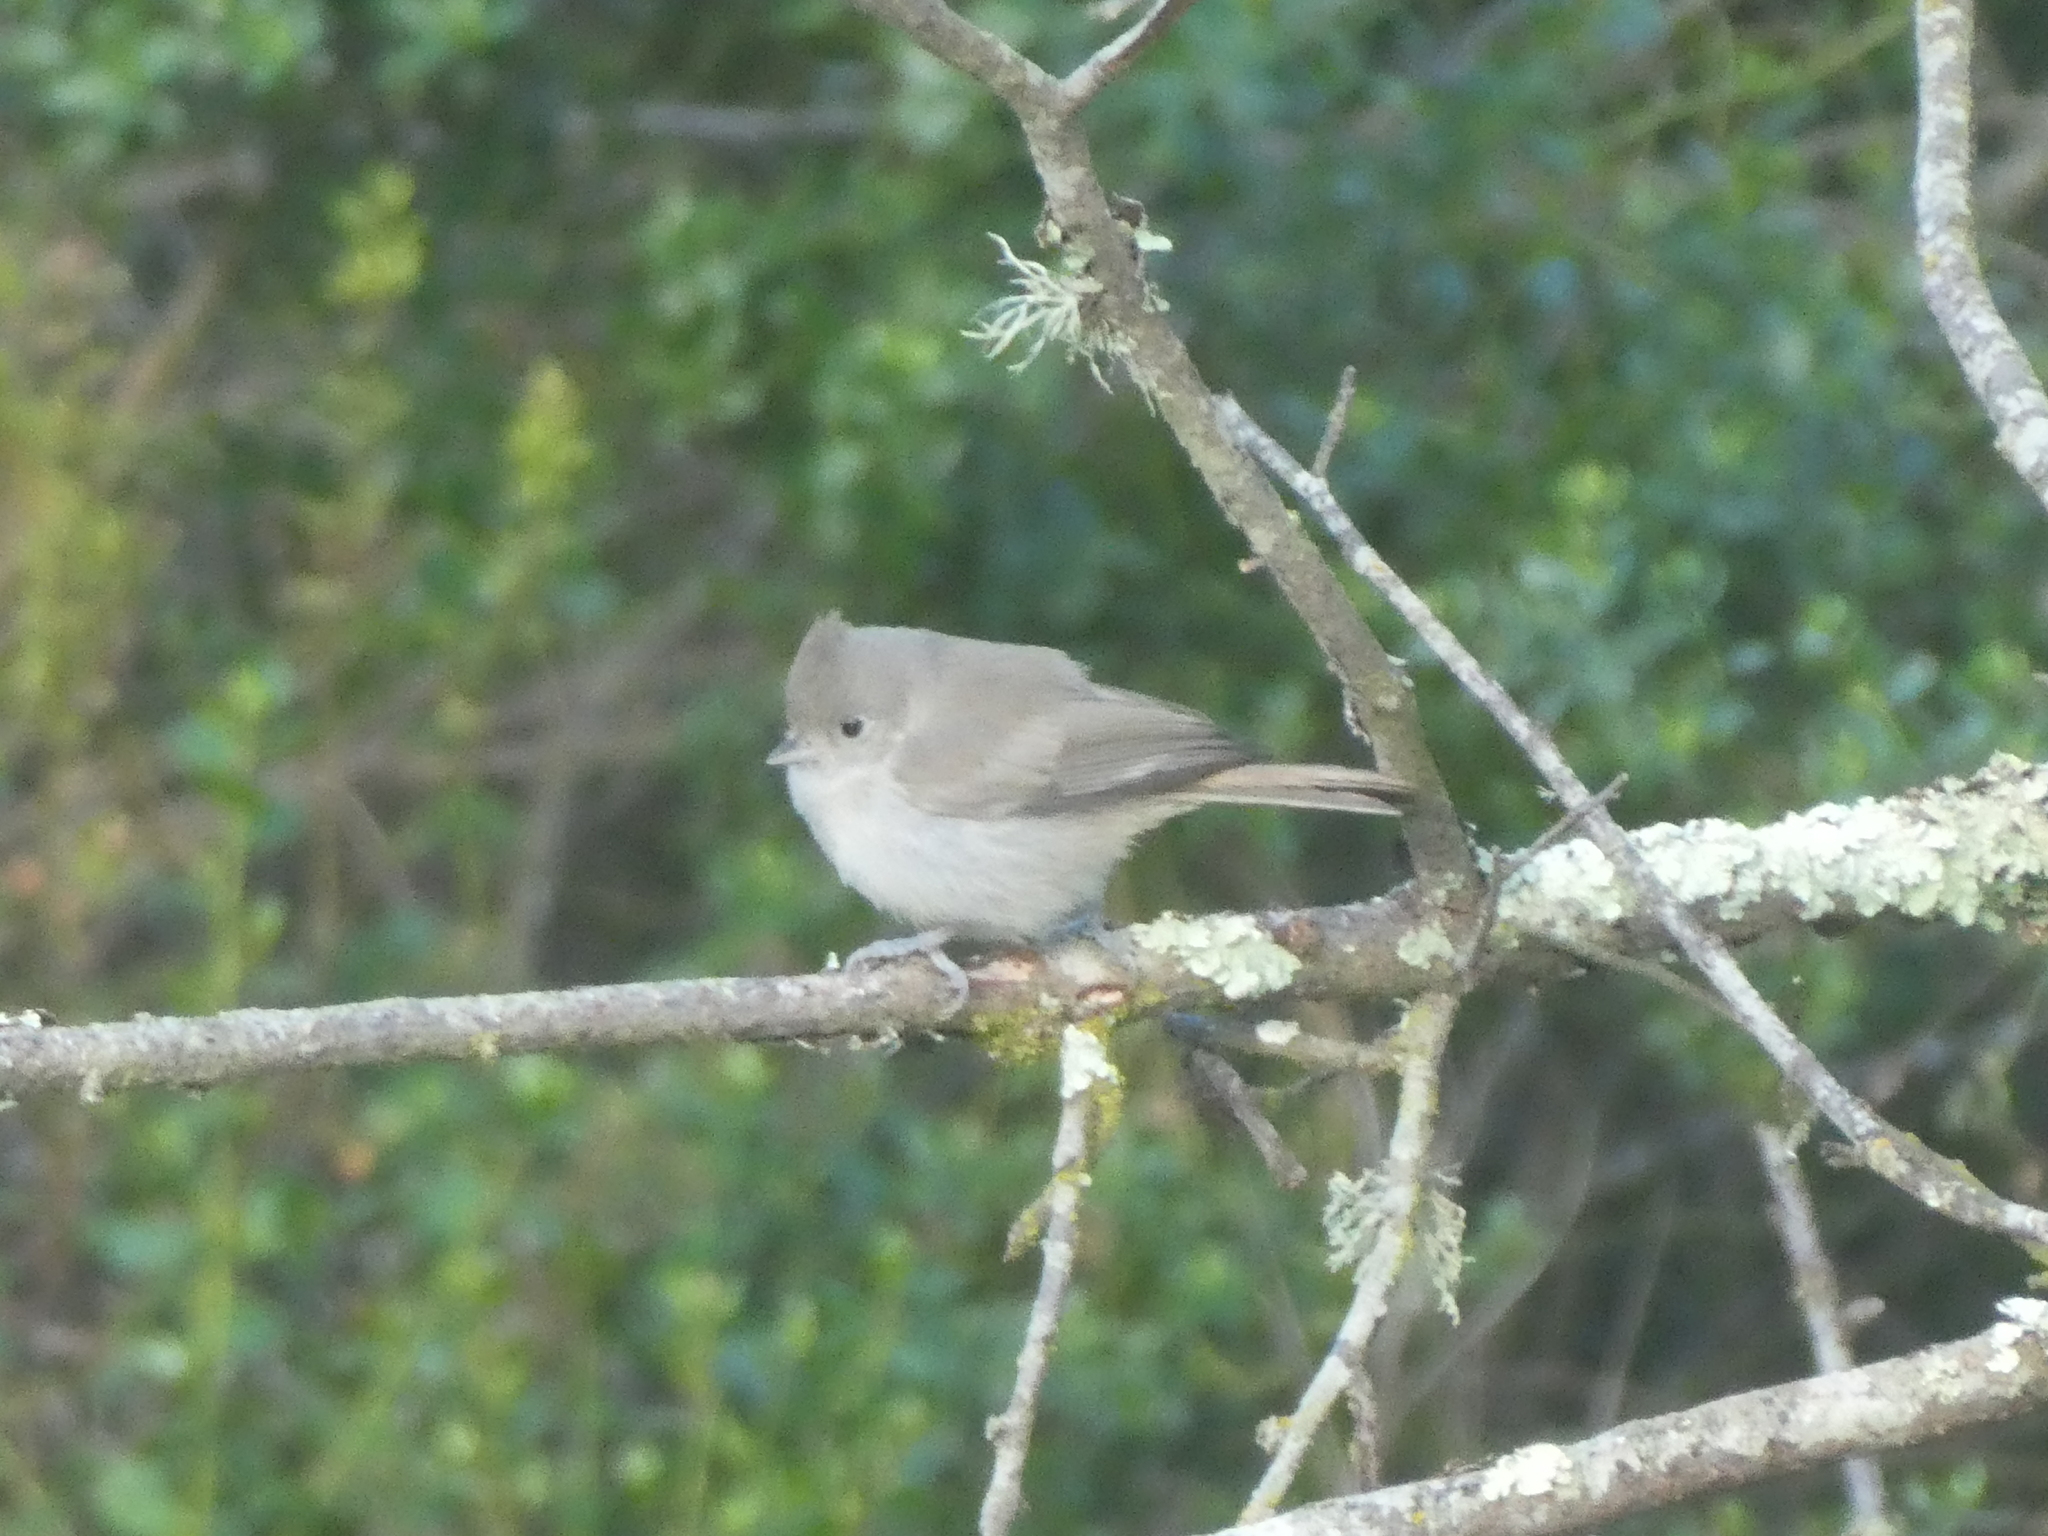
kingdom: Animalia
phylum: Chordata
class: Aves
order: Passeriformes
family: Paridae
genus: Baeolophus
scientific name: Baeolophus inornatus
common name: Oak titmouse
